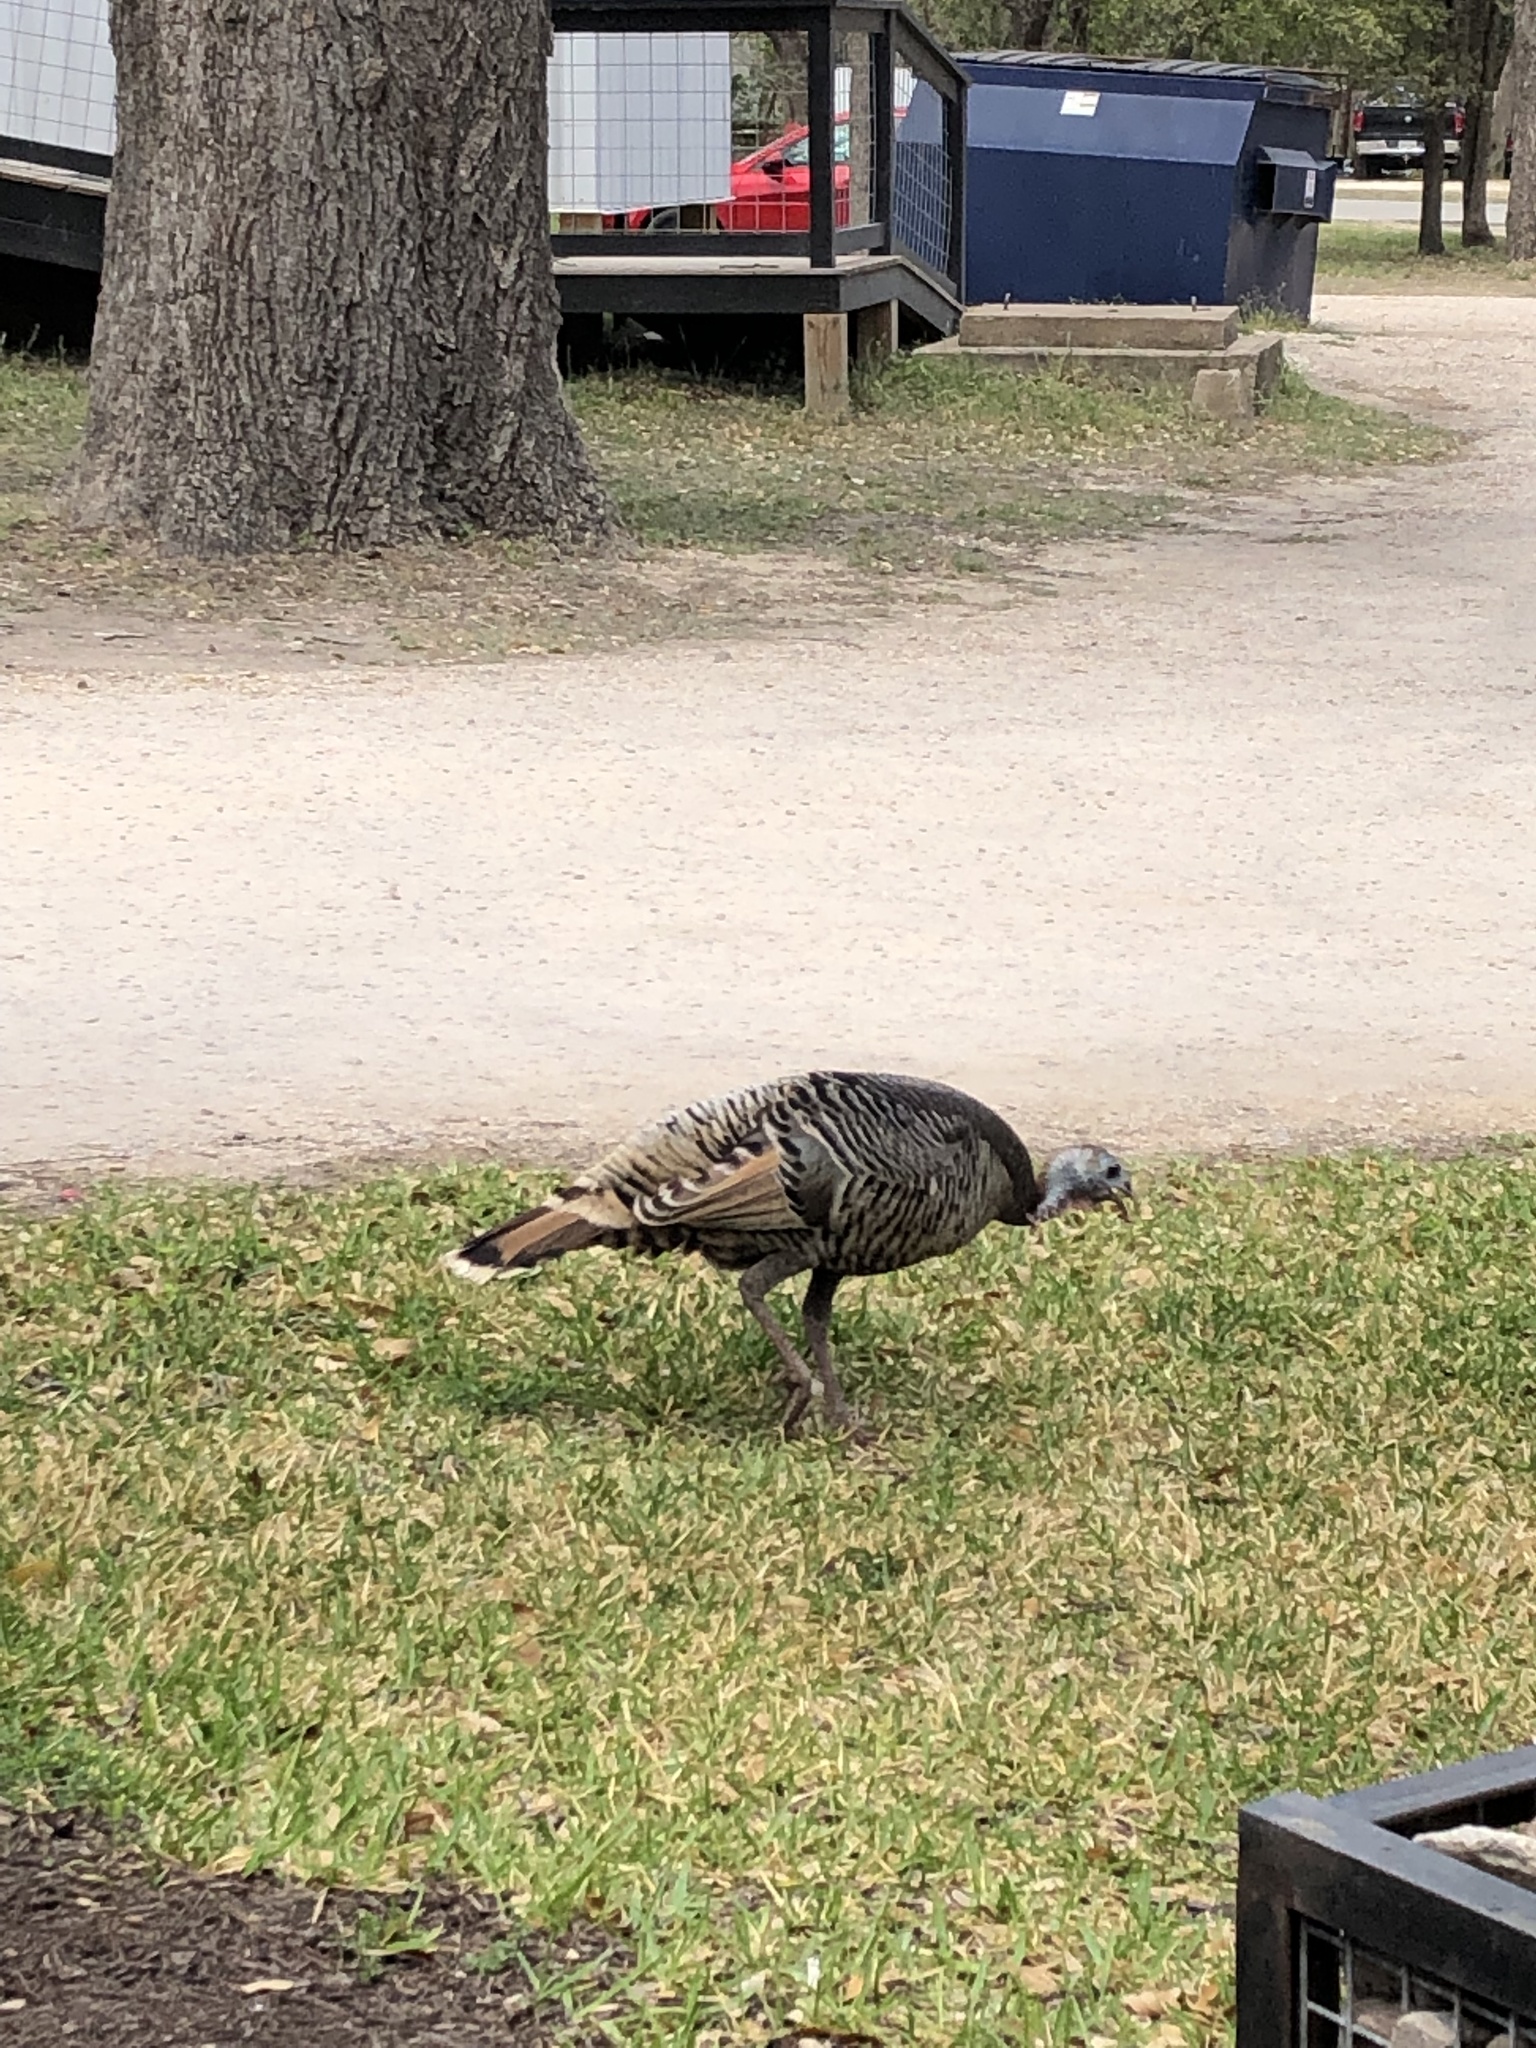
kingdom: Animalia
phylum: Chordata
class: Aves
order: Galliformes
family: Phasianidae
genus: Meleagris
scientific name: Meleagris gallopavo
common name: Wild turkey
